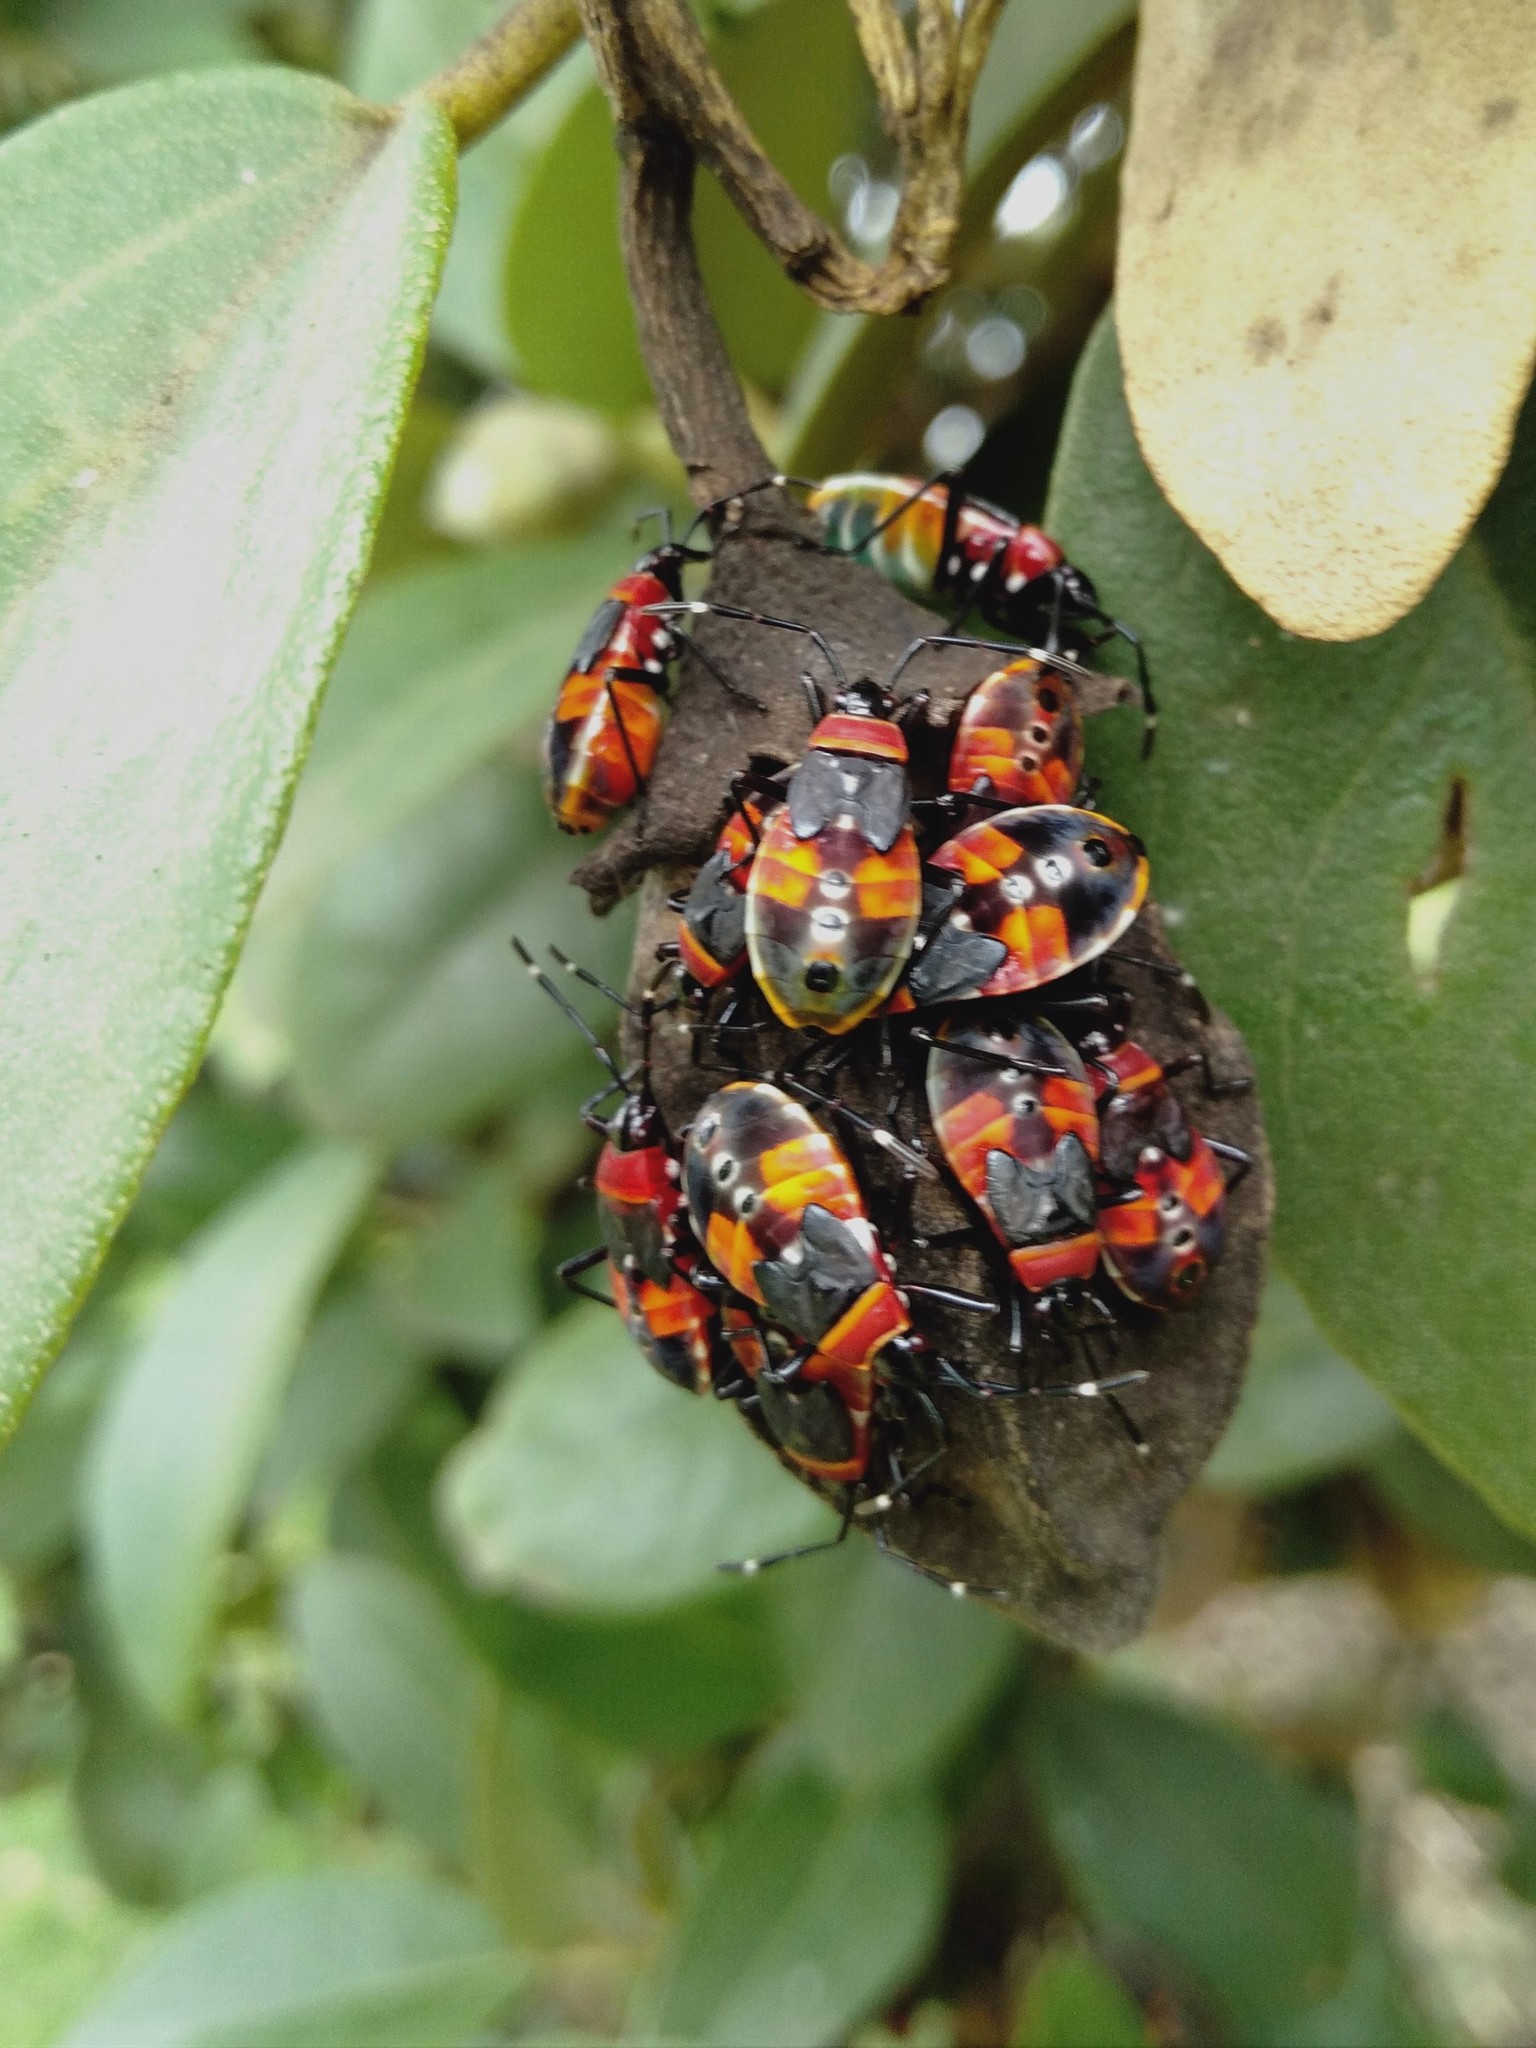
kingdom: Animalia
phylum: Arthropoda
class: Insecta
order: Hemiptera
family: Pyrrhocoridae
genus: Dindymus
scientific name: Dindymus
